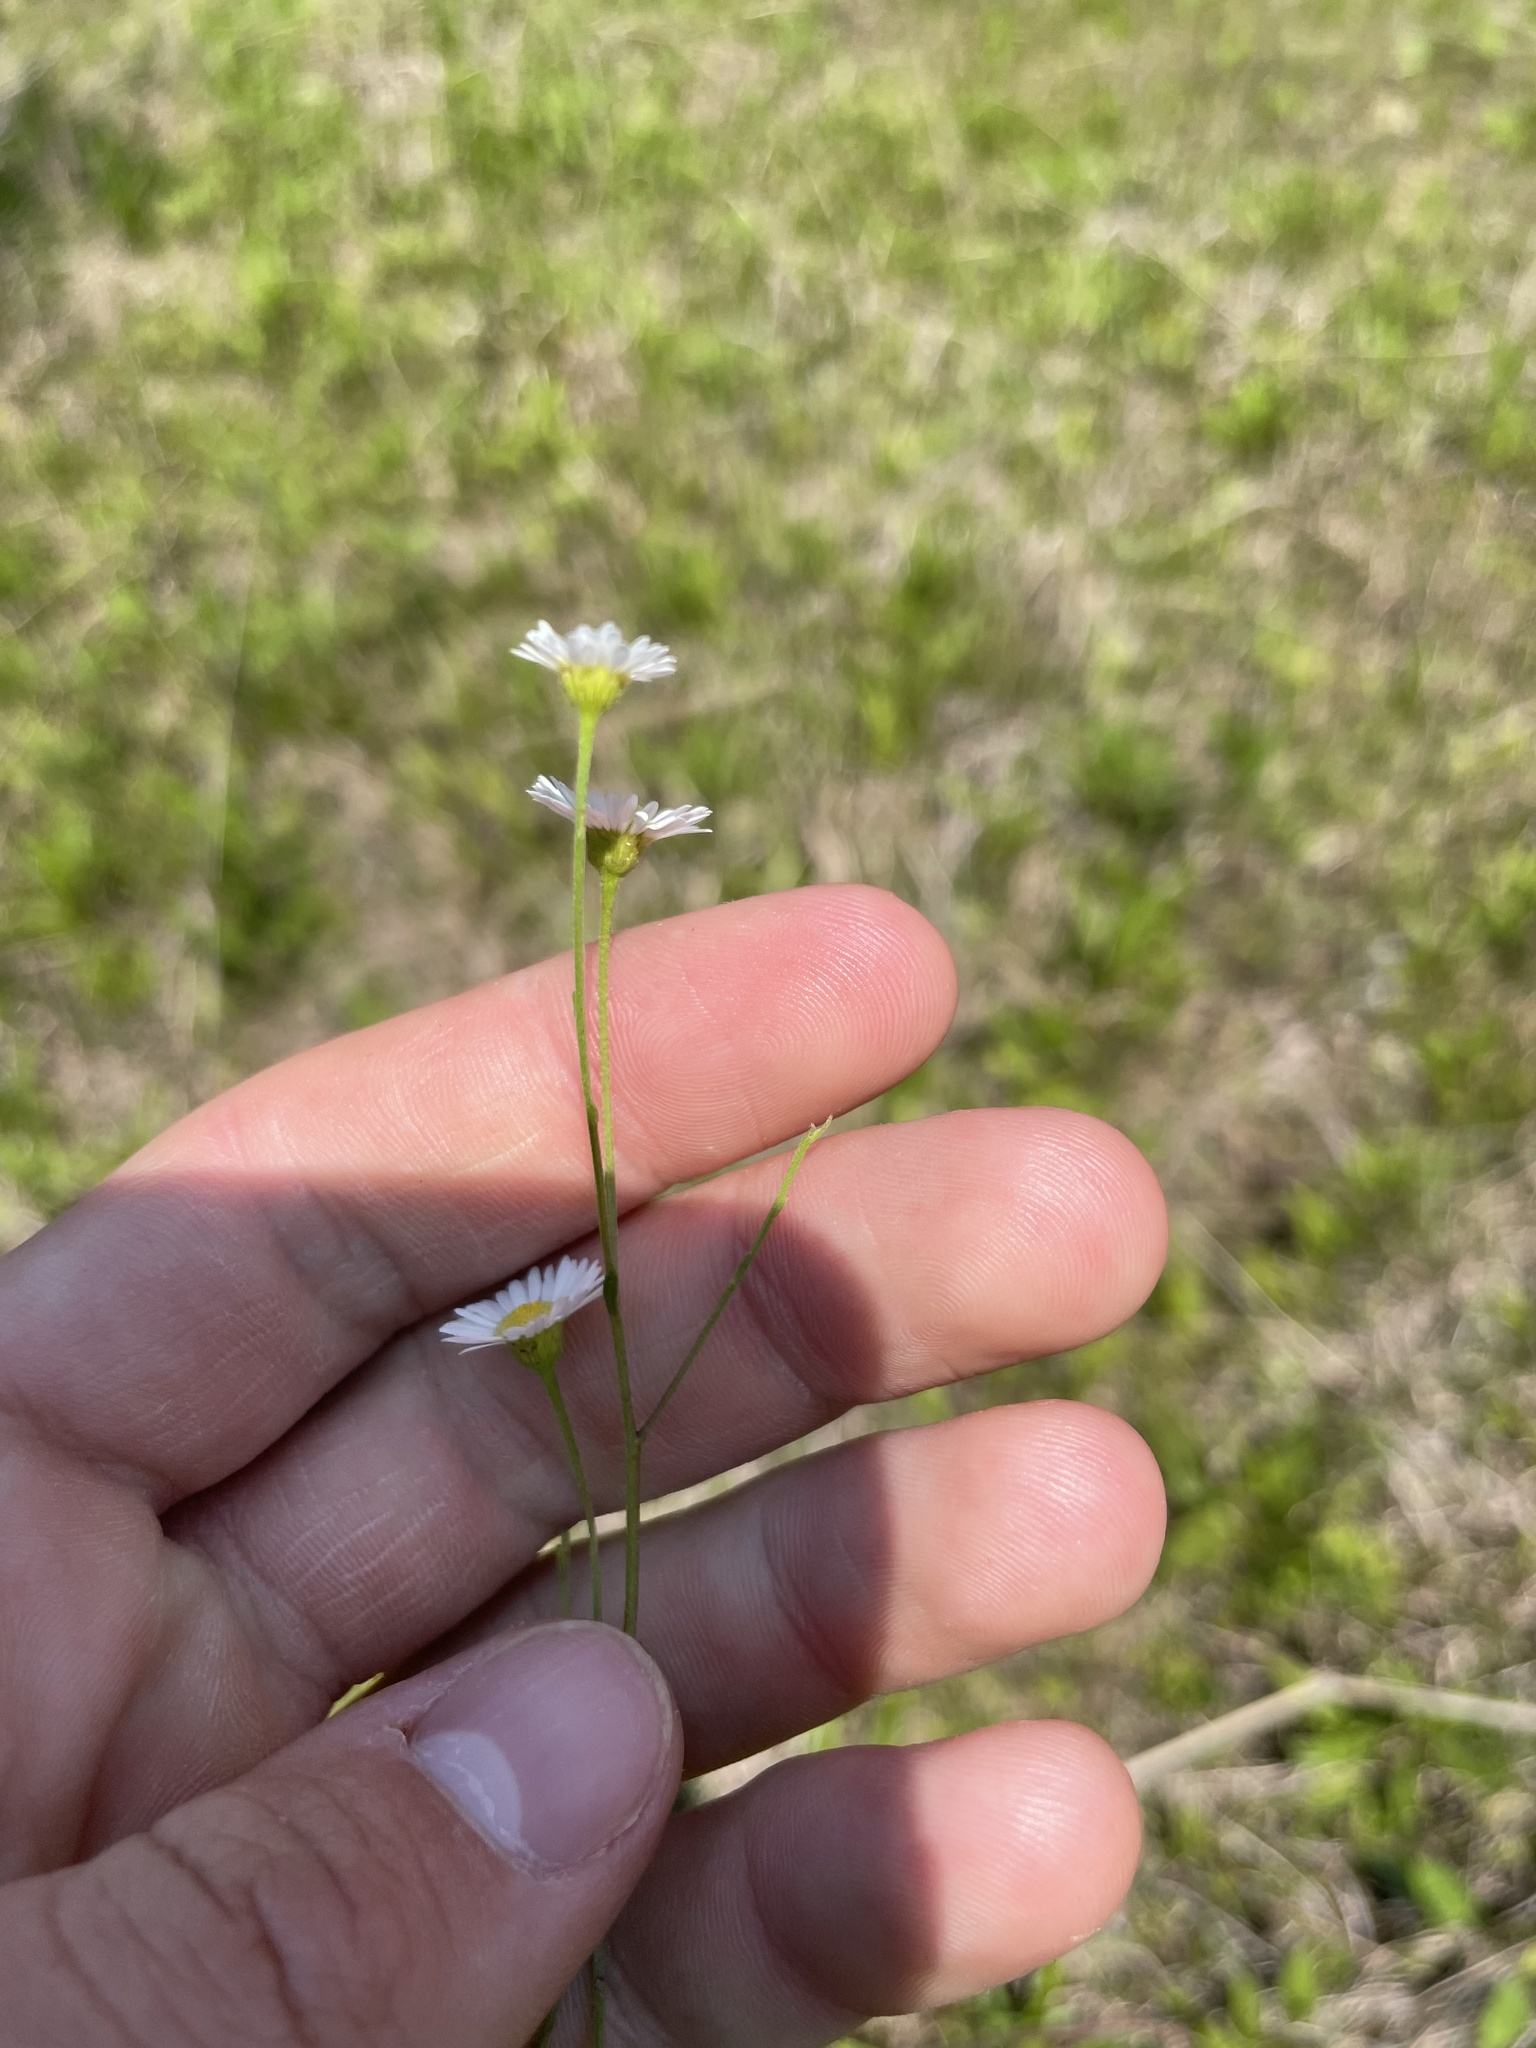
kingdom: Plantae
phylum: Tracheophyta
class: Magnoliopsida
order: Asterales
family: Asteraceae
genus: Erigeron
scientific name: Erigeron strigosus
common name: Common eastern fleabane
